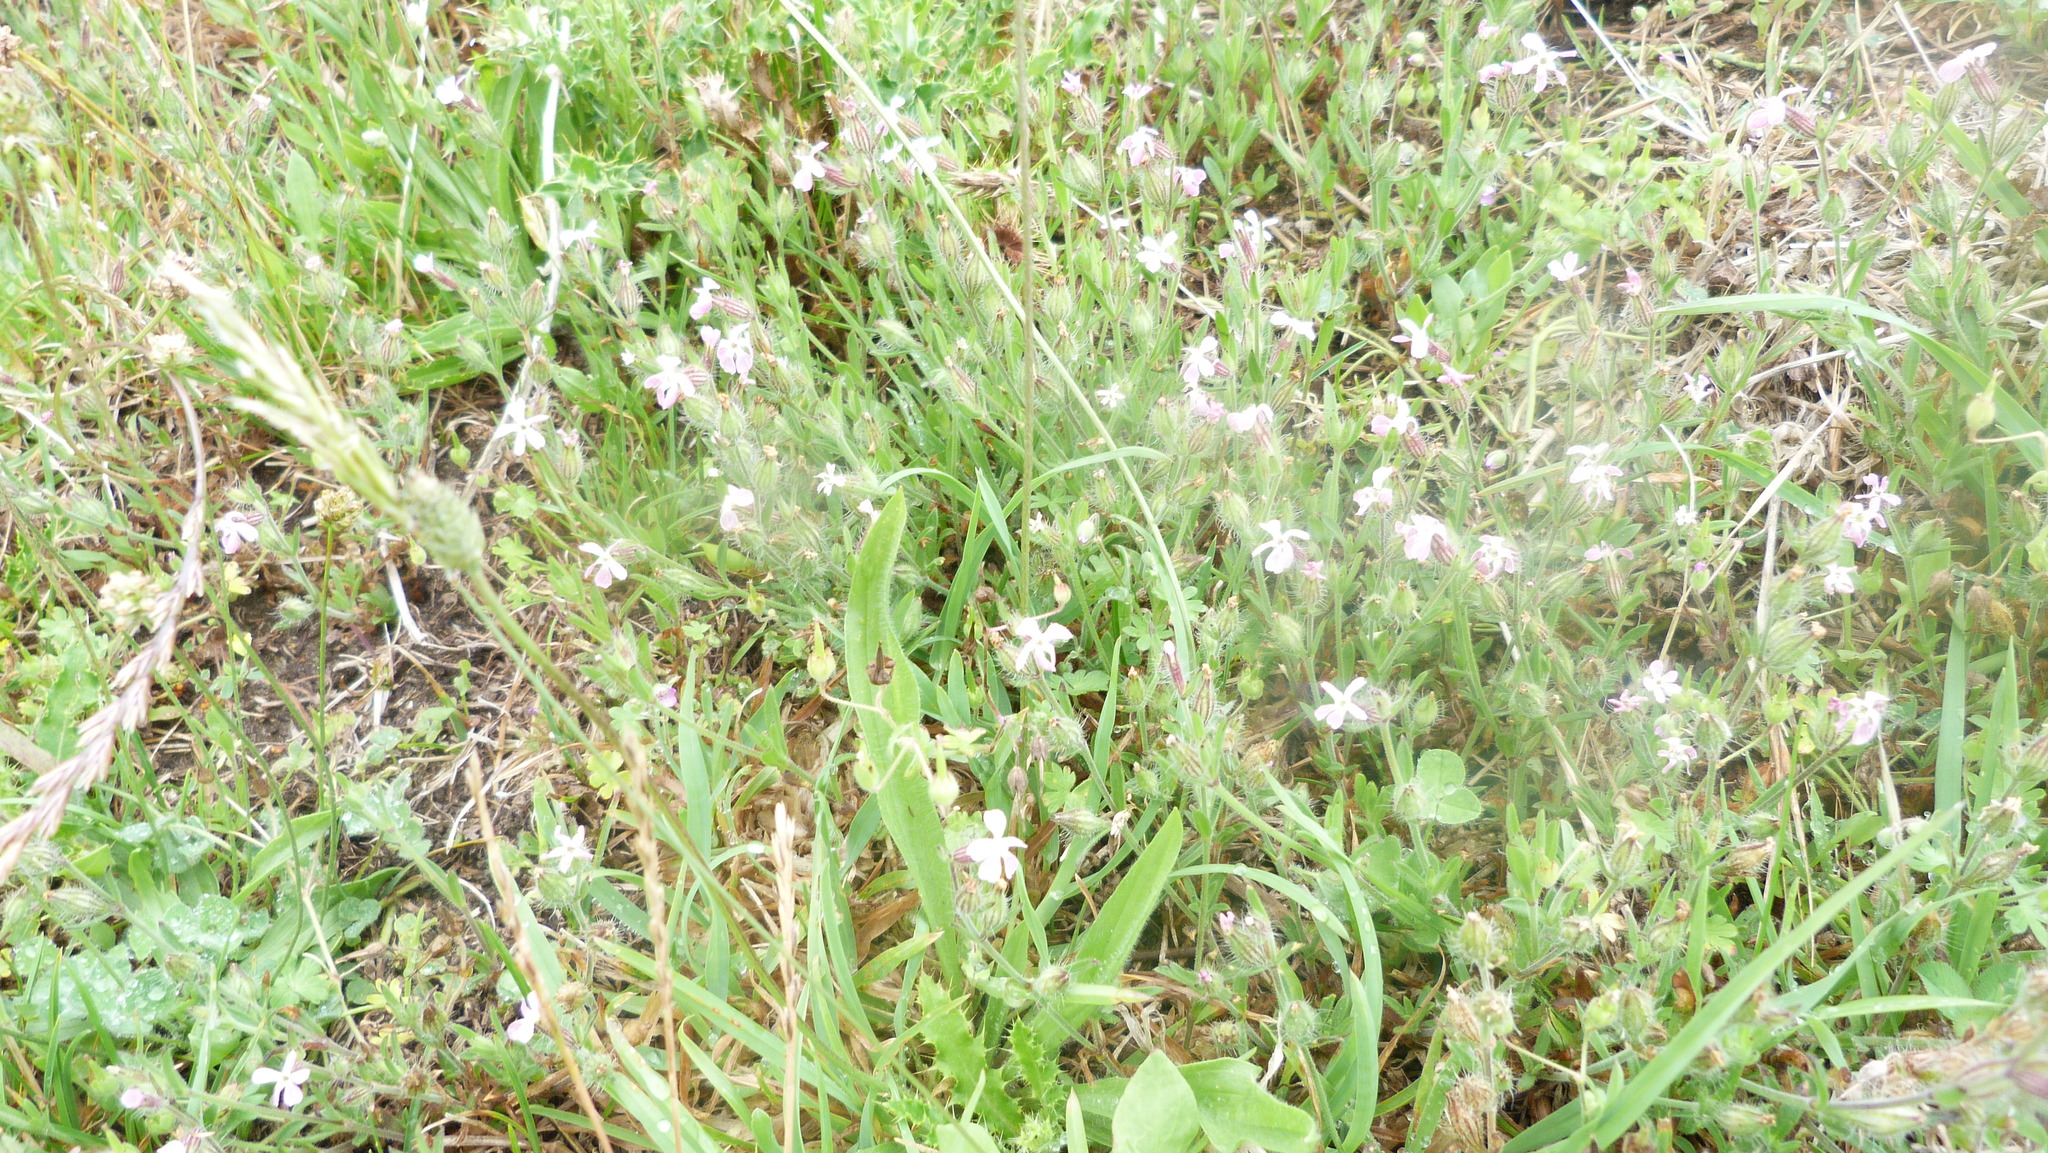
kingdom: Plantae
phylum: Tracheophyta
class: Magnoliopsida
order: Caryophyllales
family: Caryophyllaceae
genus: Silene
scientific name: Silene gallica
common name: Small-flowered catchfly
